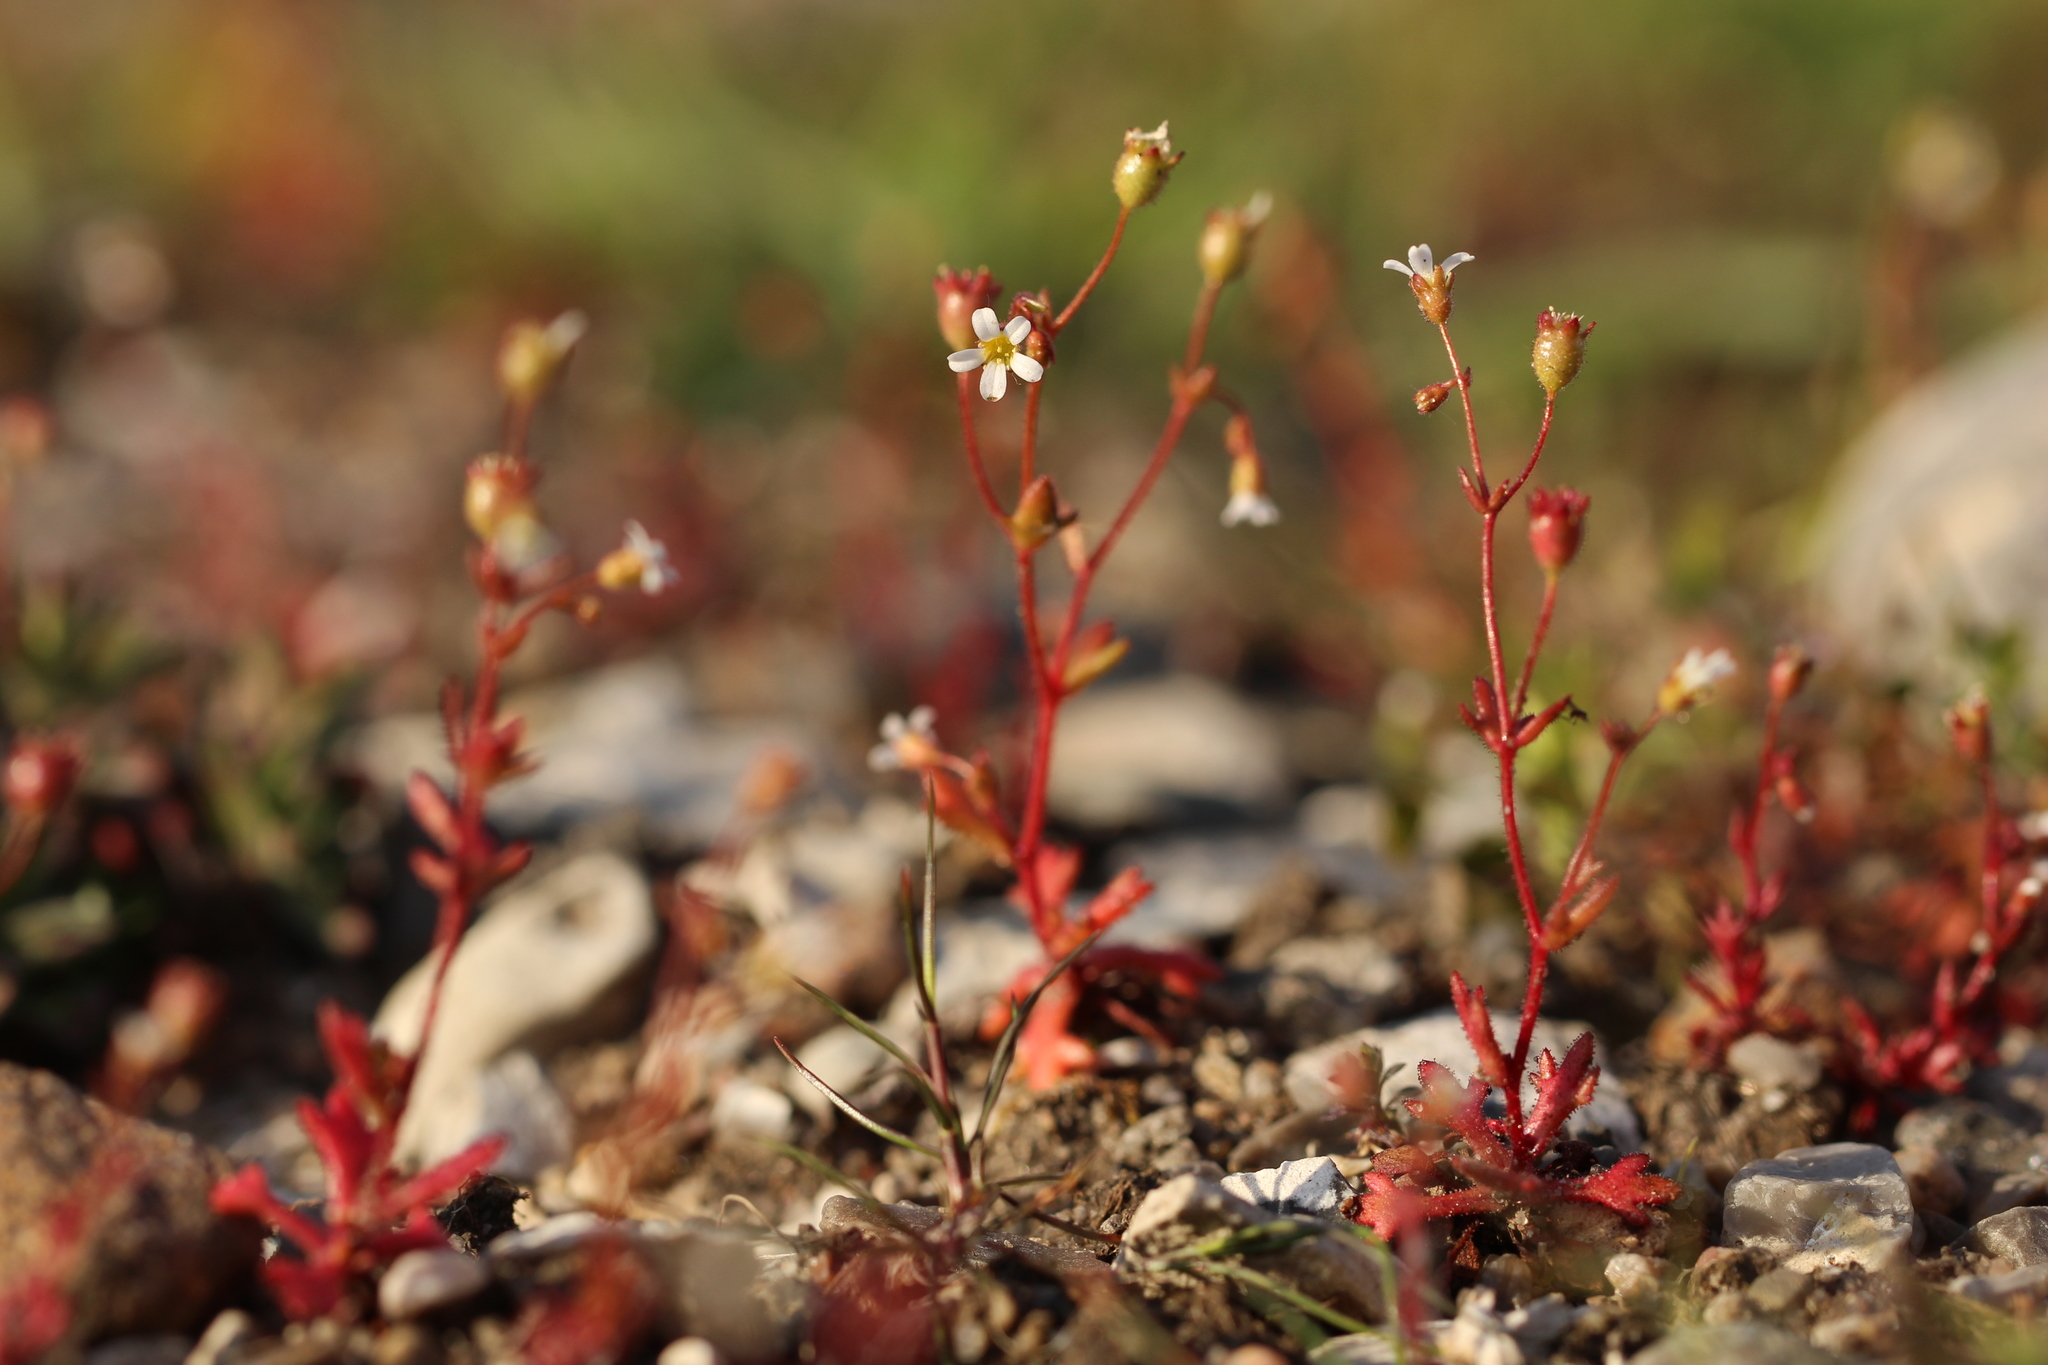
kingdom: Plantae
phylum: Tracheophyta
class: Magnoliopsida
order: Saxifragales
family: Saxifragaceae
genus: Saxifraga
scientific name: Saxifraga tridactylites
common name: Rue-leaved saxifrage
